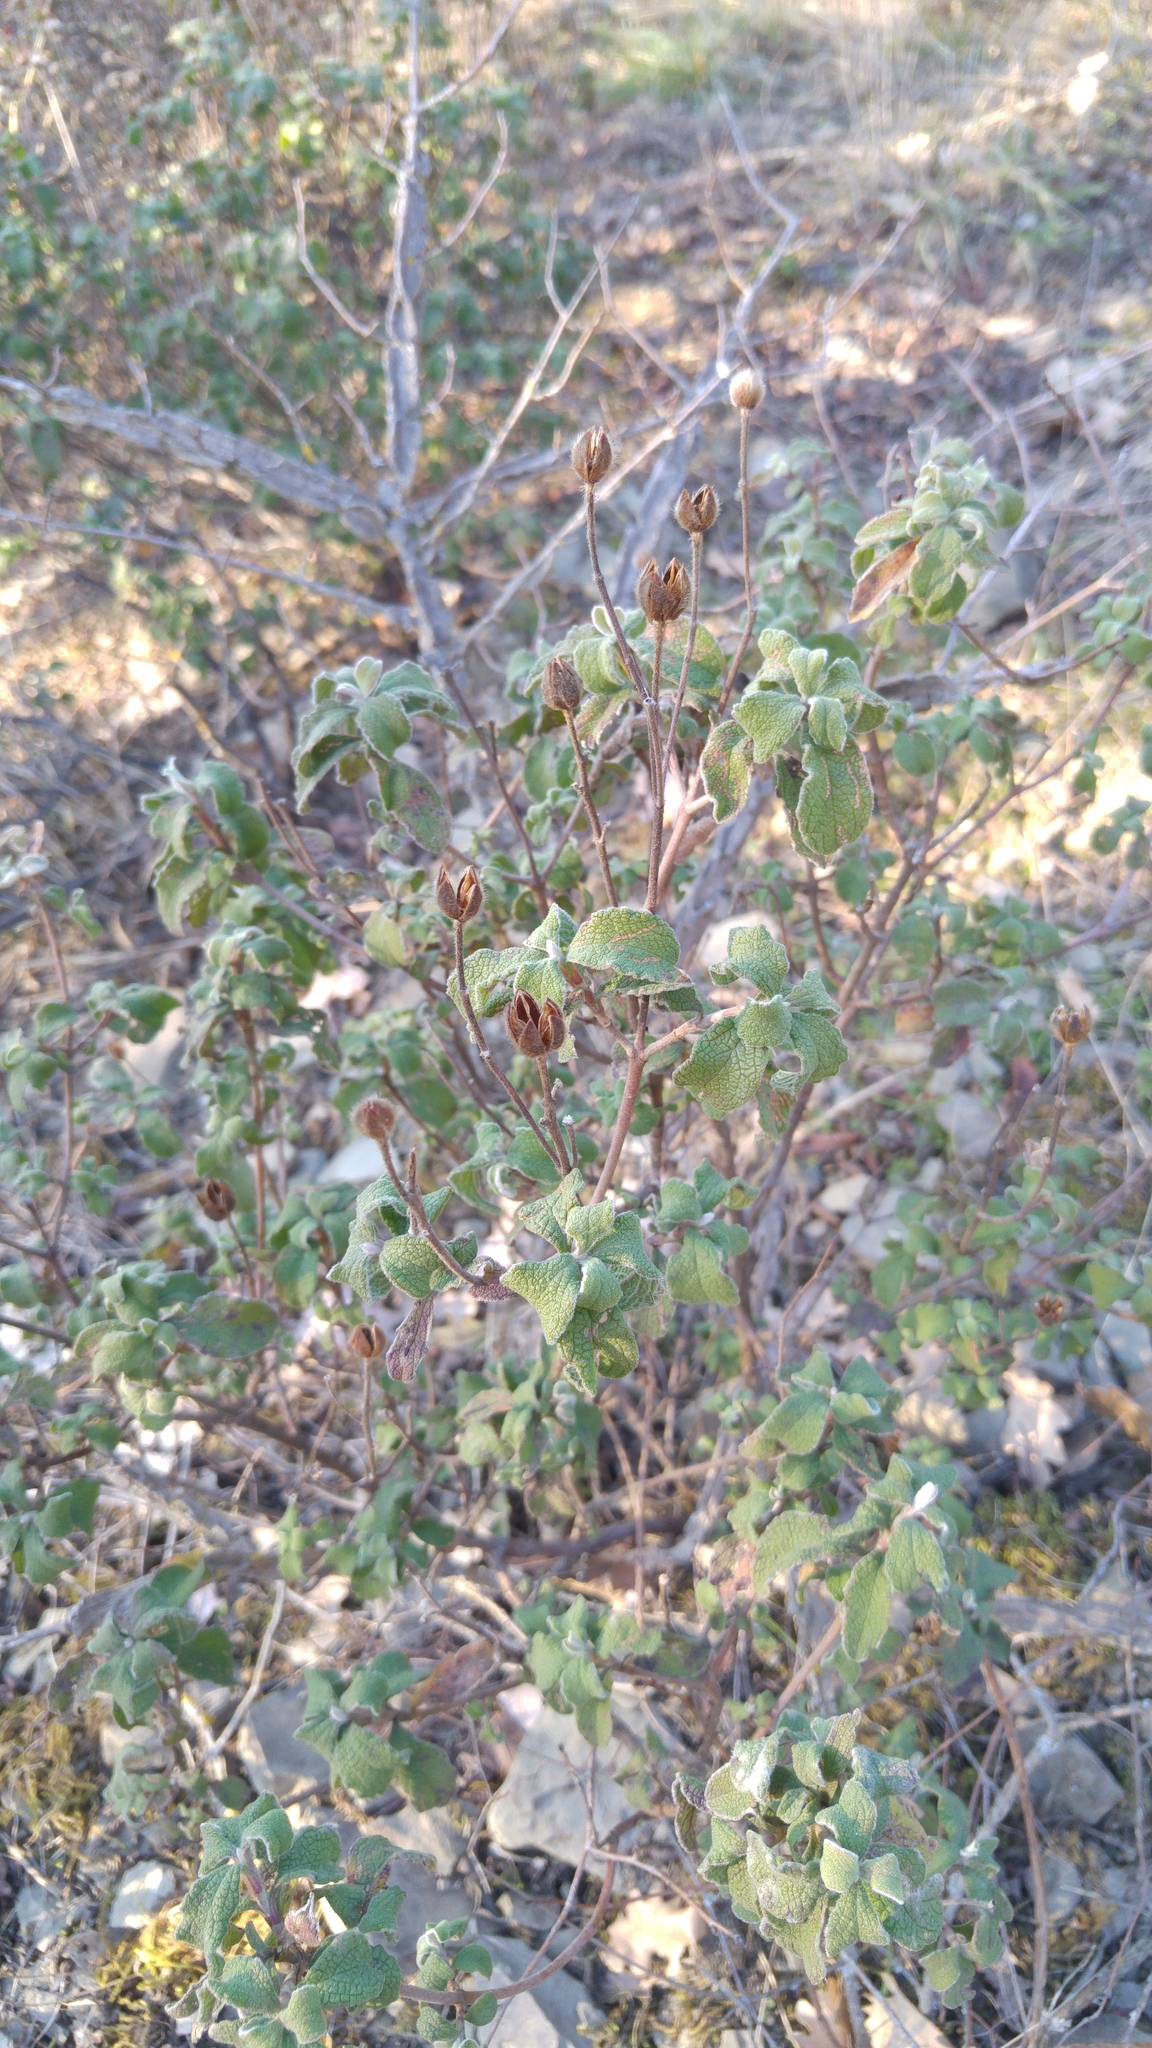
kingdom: Plantae
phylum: Tracheophyta
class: Magnoliopsida
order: Malvales
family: Cistaceae
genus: Cistus
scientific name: Cistus tauricus
